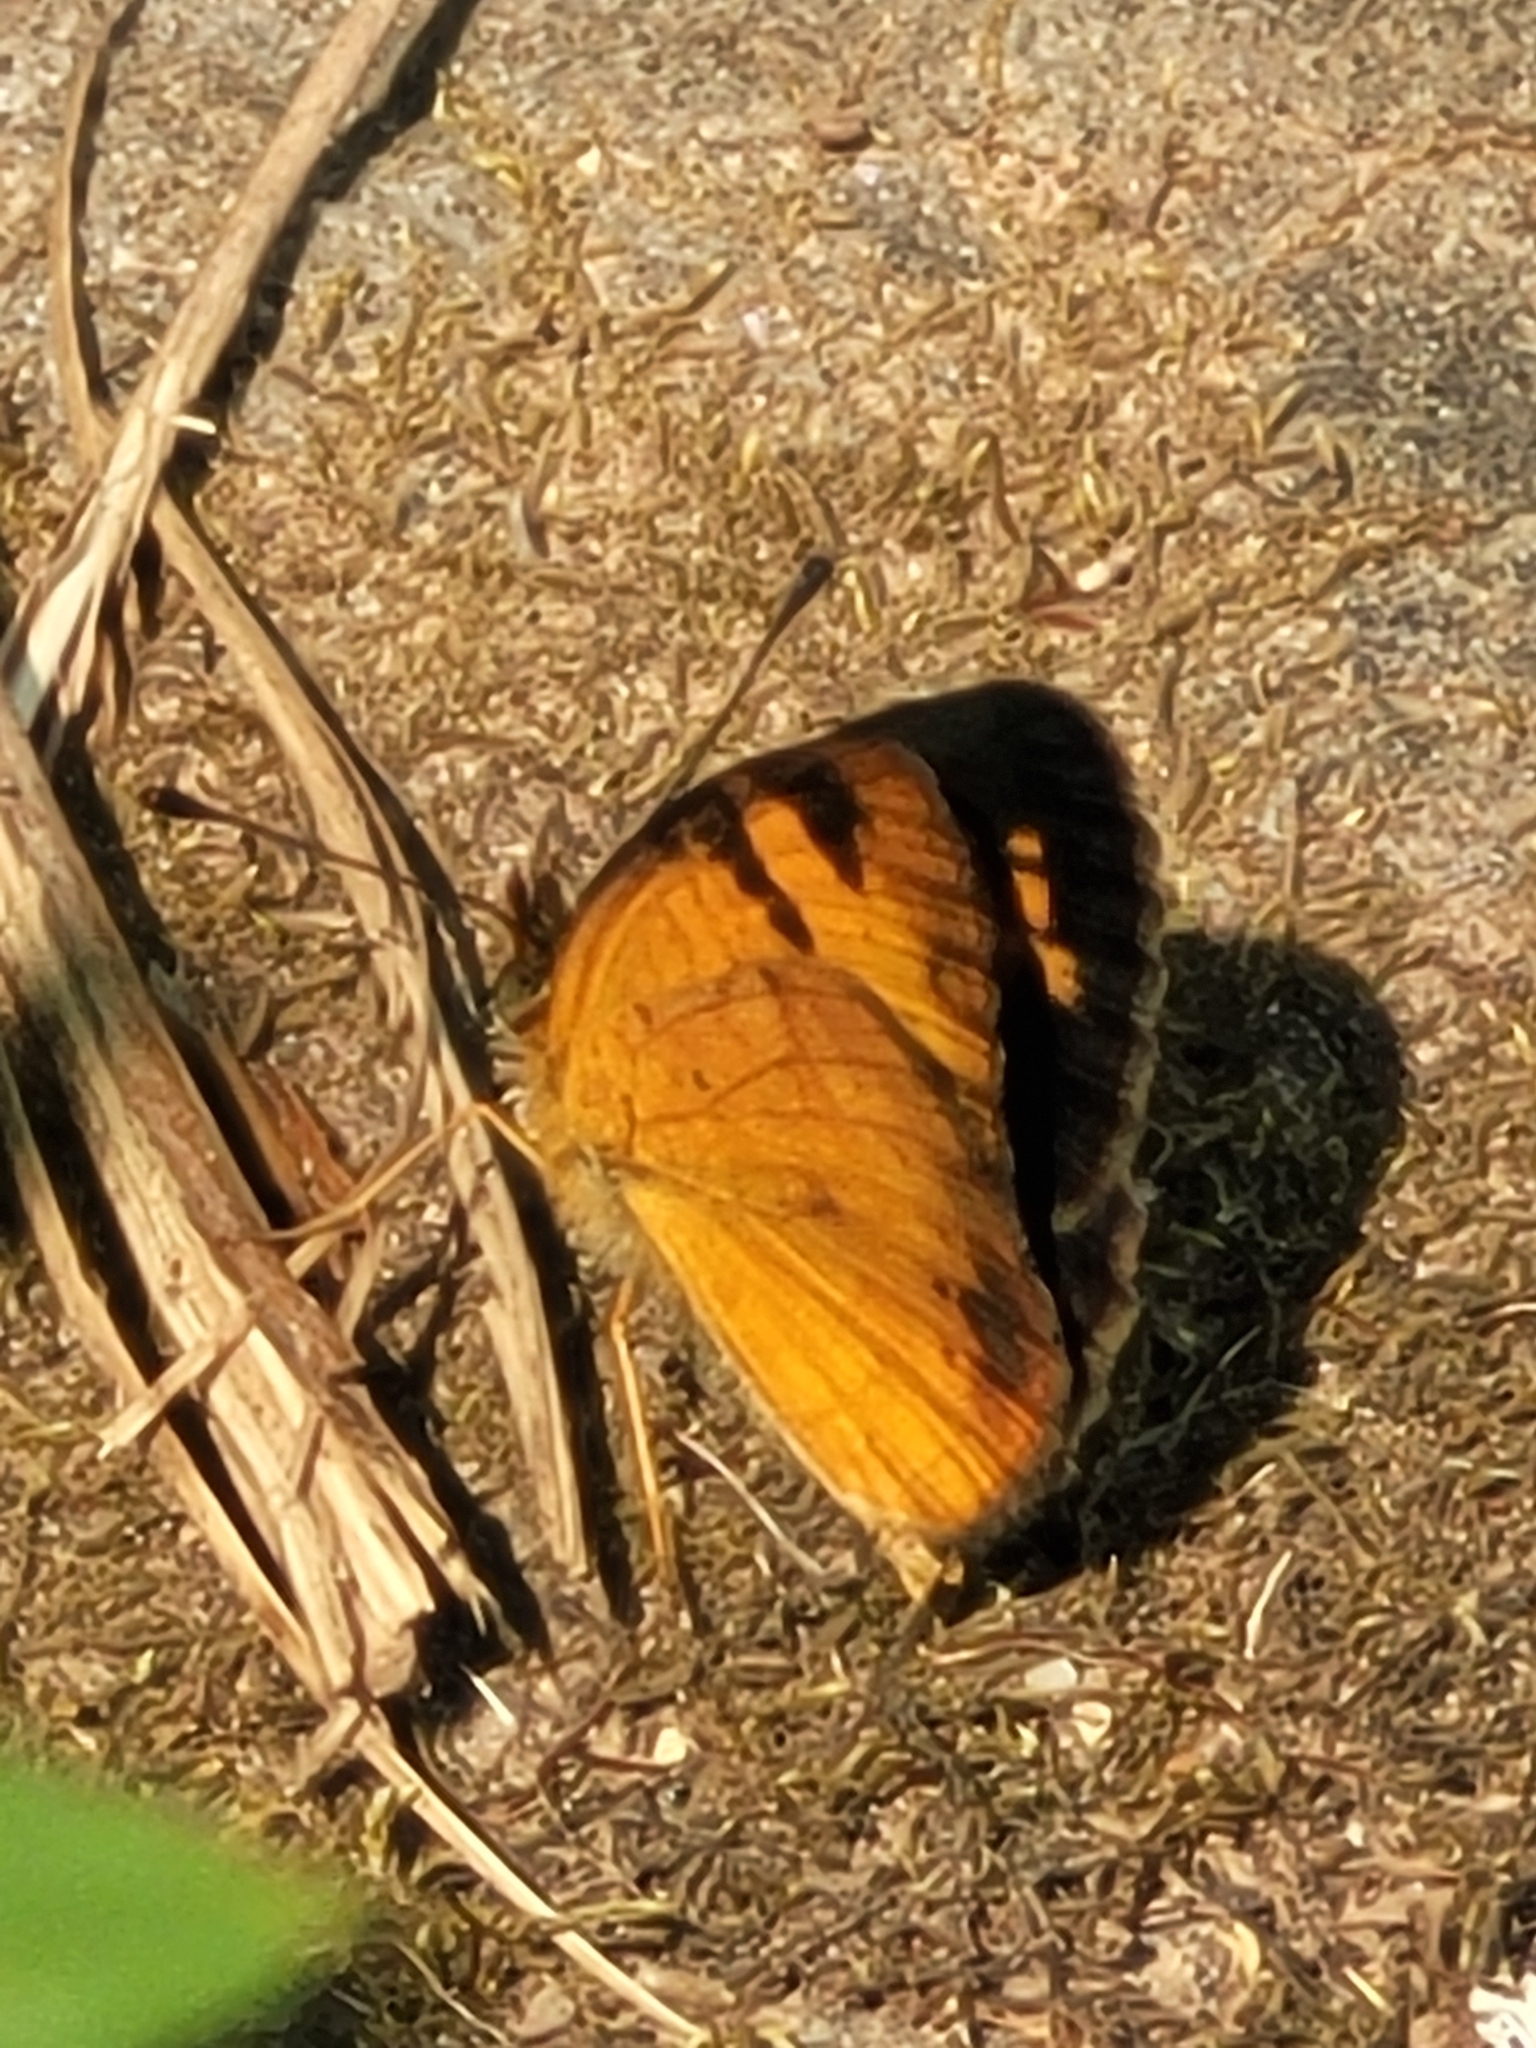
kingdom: Animalia
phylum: Arthropoda
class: Insecta
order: Lepidoptera
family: Nymphalidae
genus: Phyciodes
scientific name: Phyciodes tharos
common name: Pearl crescent
